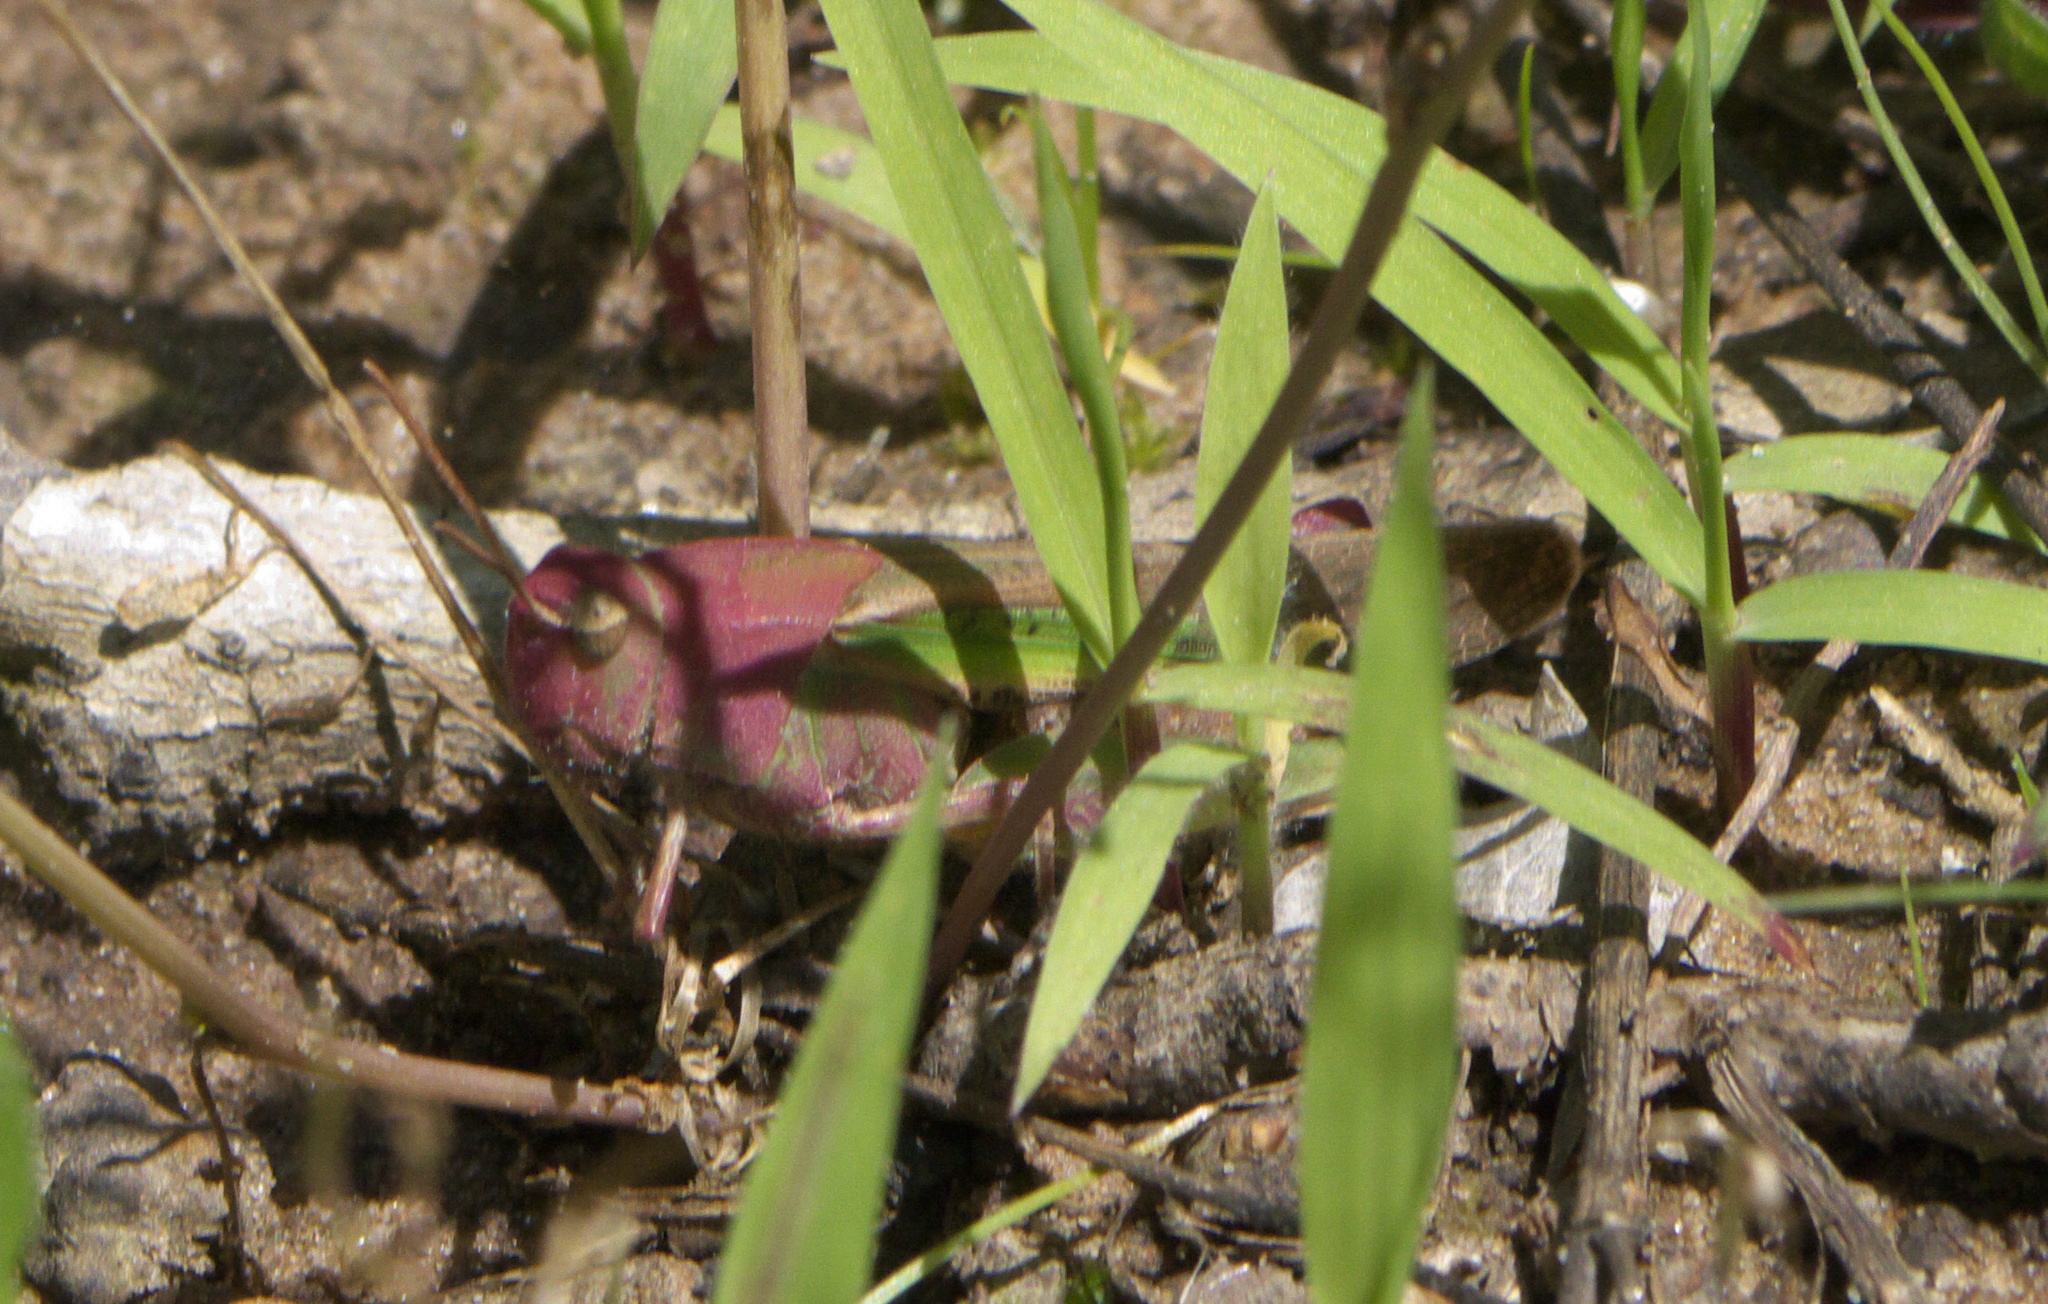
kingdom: Animalia
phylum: Arthropoda
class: Insecta
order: Orthoptera
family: Acrididae
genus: Chortophaga
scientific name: Chortophaga viridifasciata
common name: Green-striped grasshopper
